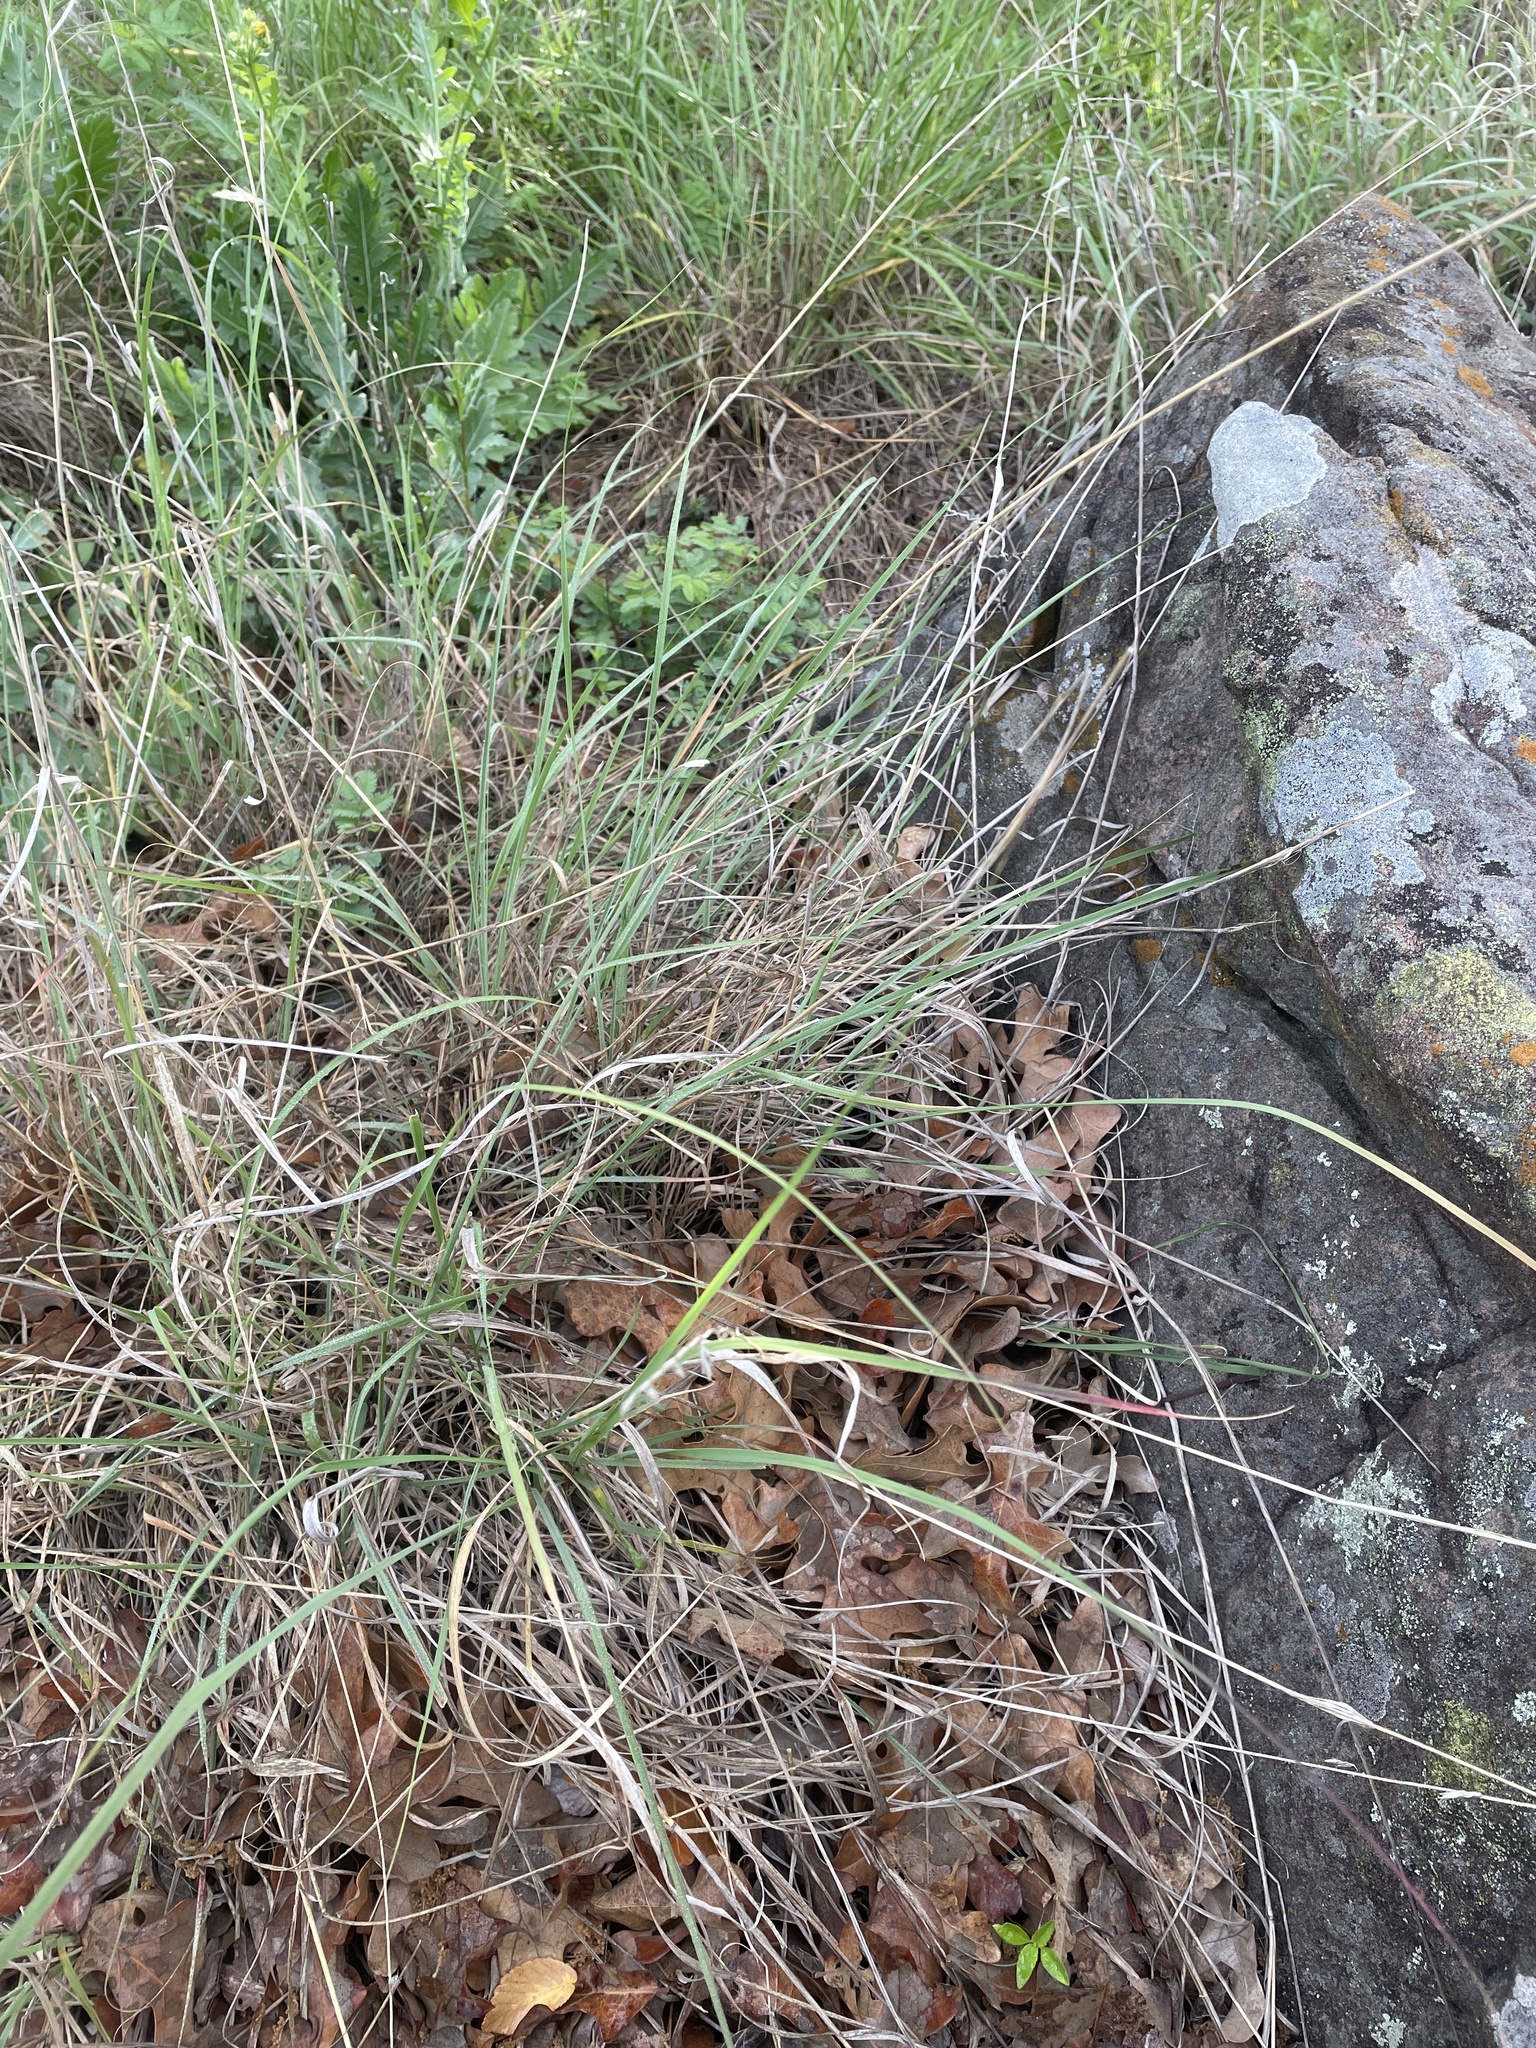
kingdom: Plantae
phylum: Tracheophyta
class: Liliopsida
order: Poales
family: Poaceae
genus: Bouteloua
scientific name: Bouteloua curtipendula
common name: Side-oats grama
